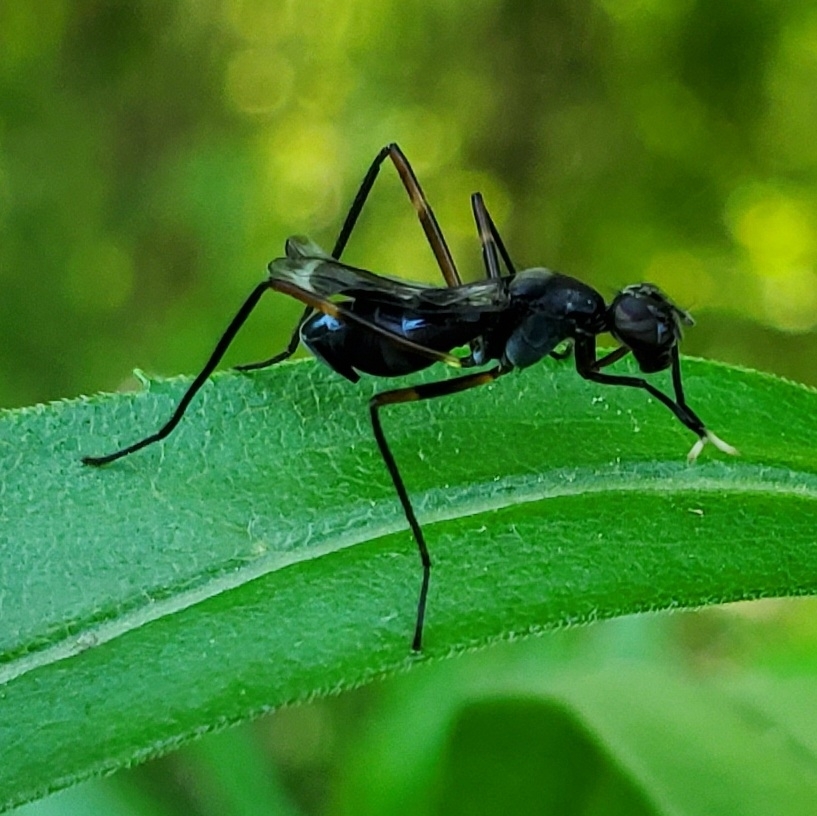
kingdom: Animalia
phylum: Arthropoda
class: Insecta
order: Diptera
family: Micropezidae
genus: Taeniaptera
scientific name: Taeniaptera trivittata
